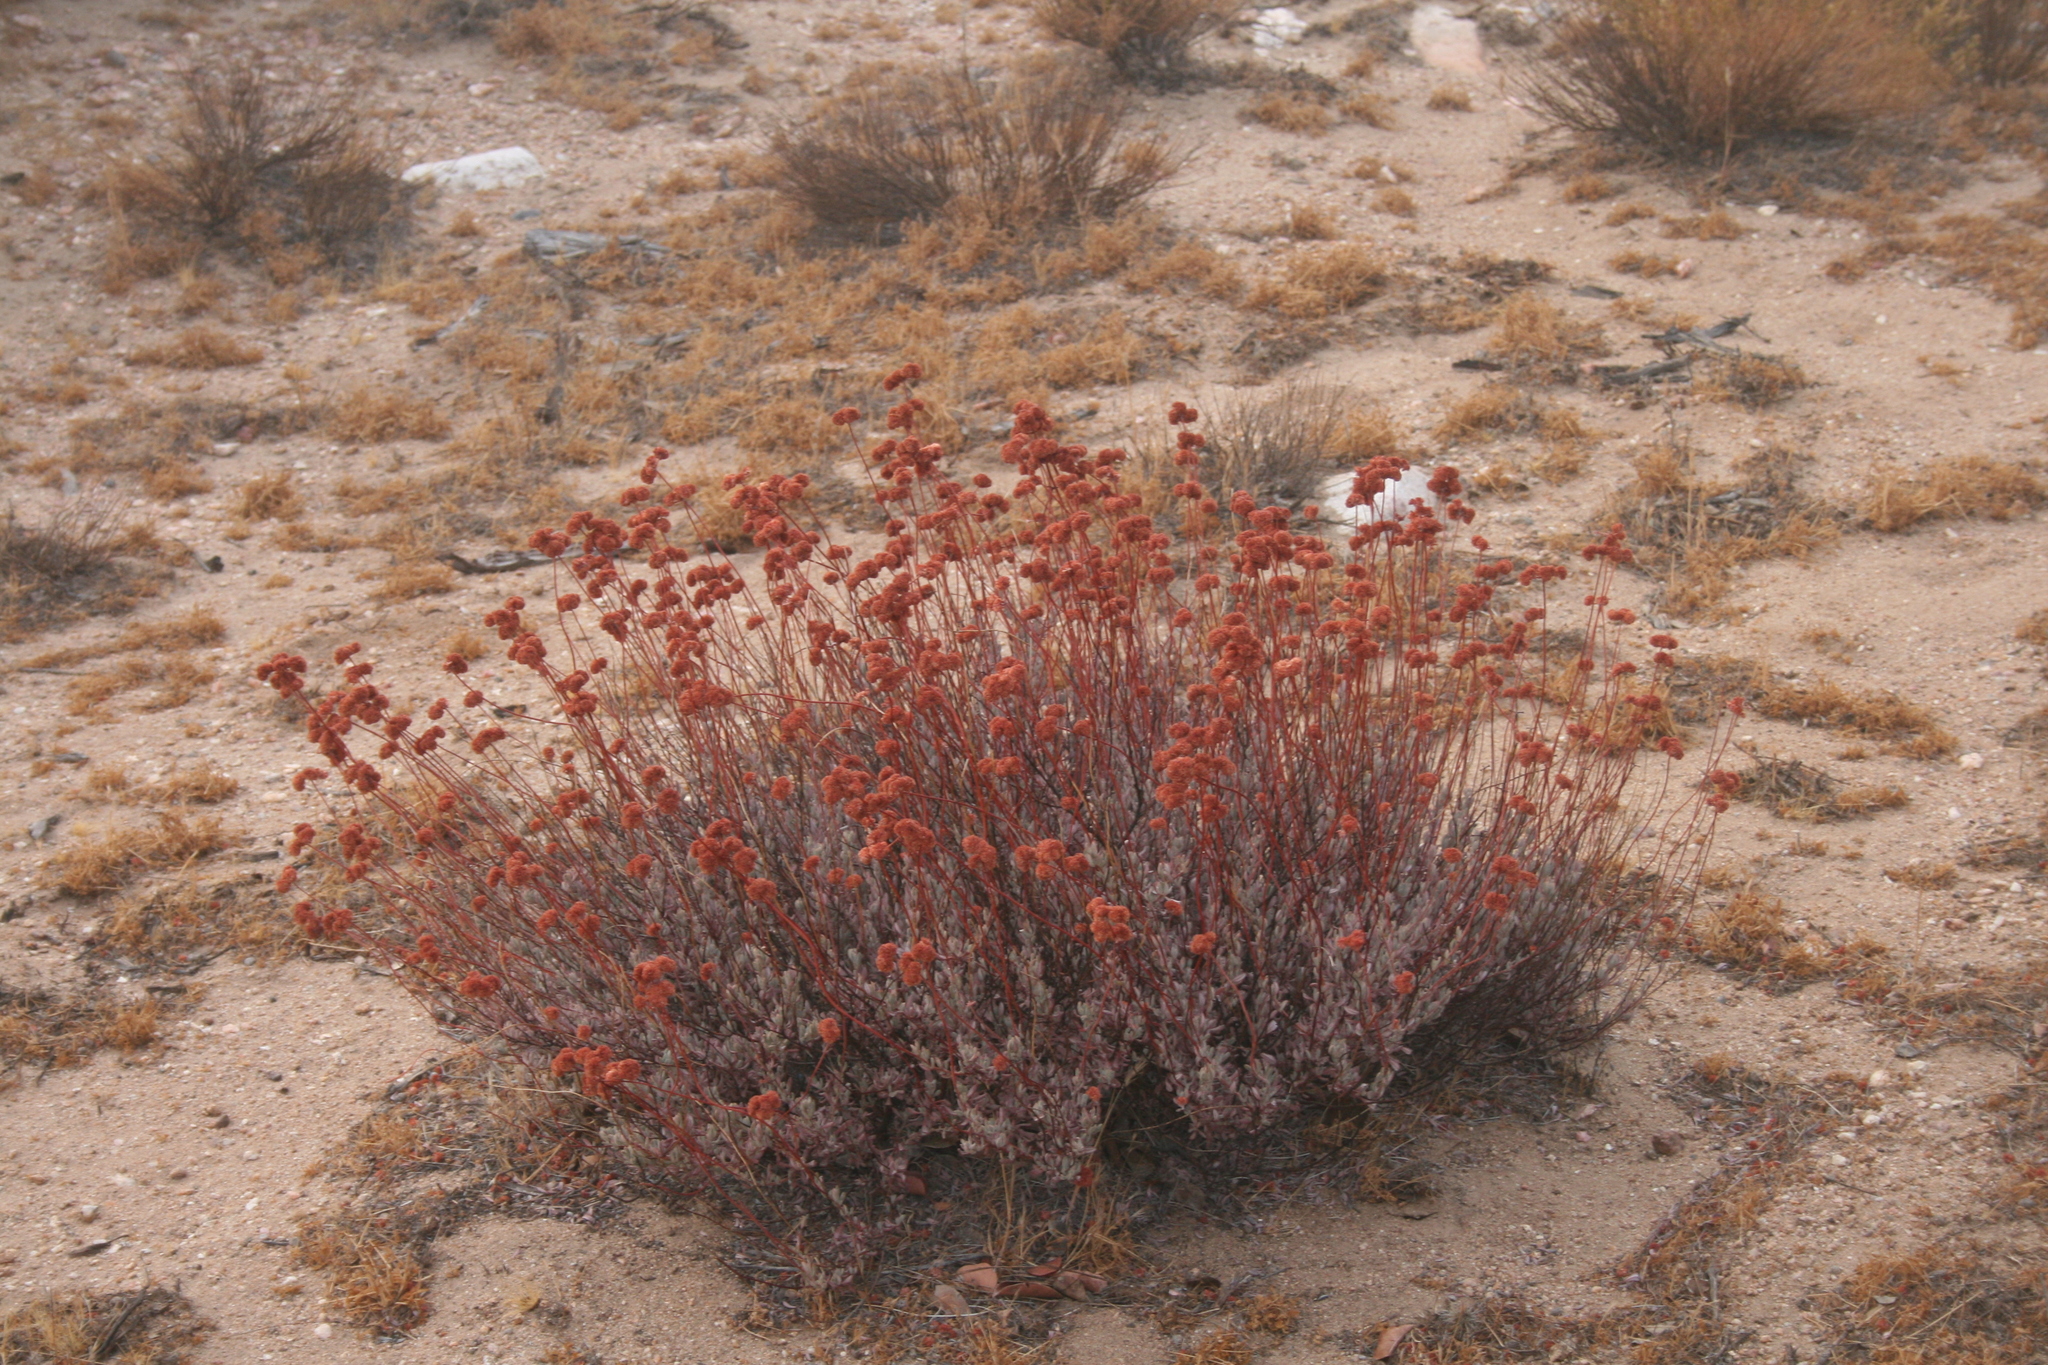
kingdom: Plantae
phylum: Tracheophyta
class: Magnoliopsida
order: Caryophyllales
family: Polygonaceae
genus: Eriogonum
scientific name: Eriogonum fasciculatum
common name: California wild buckwheat
